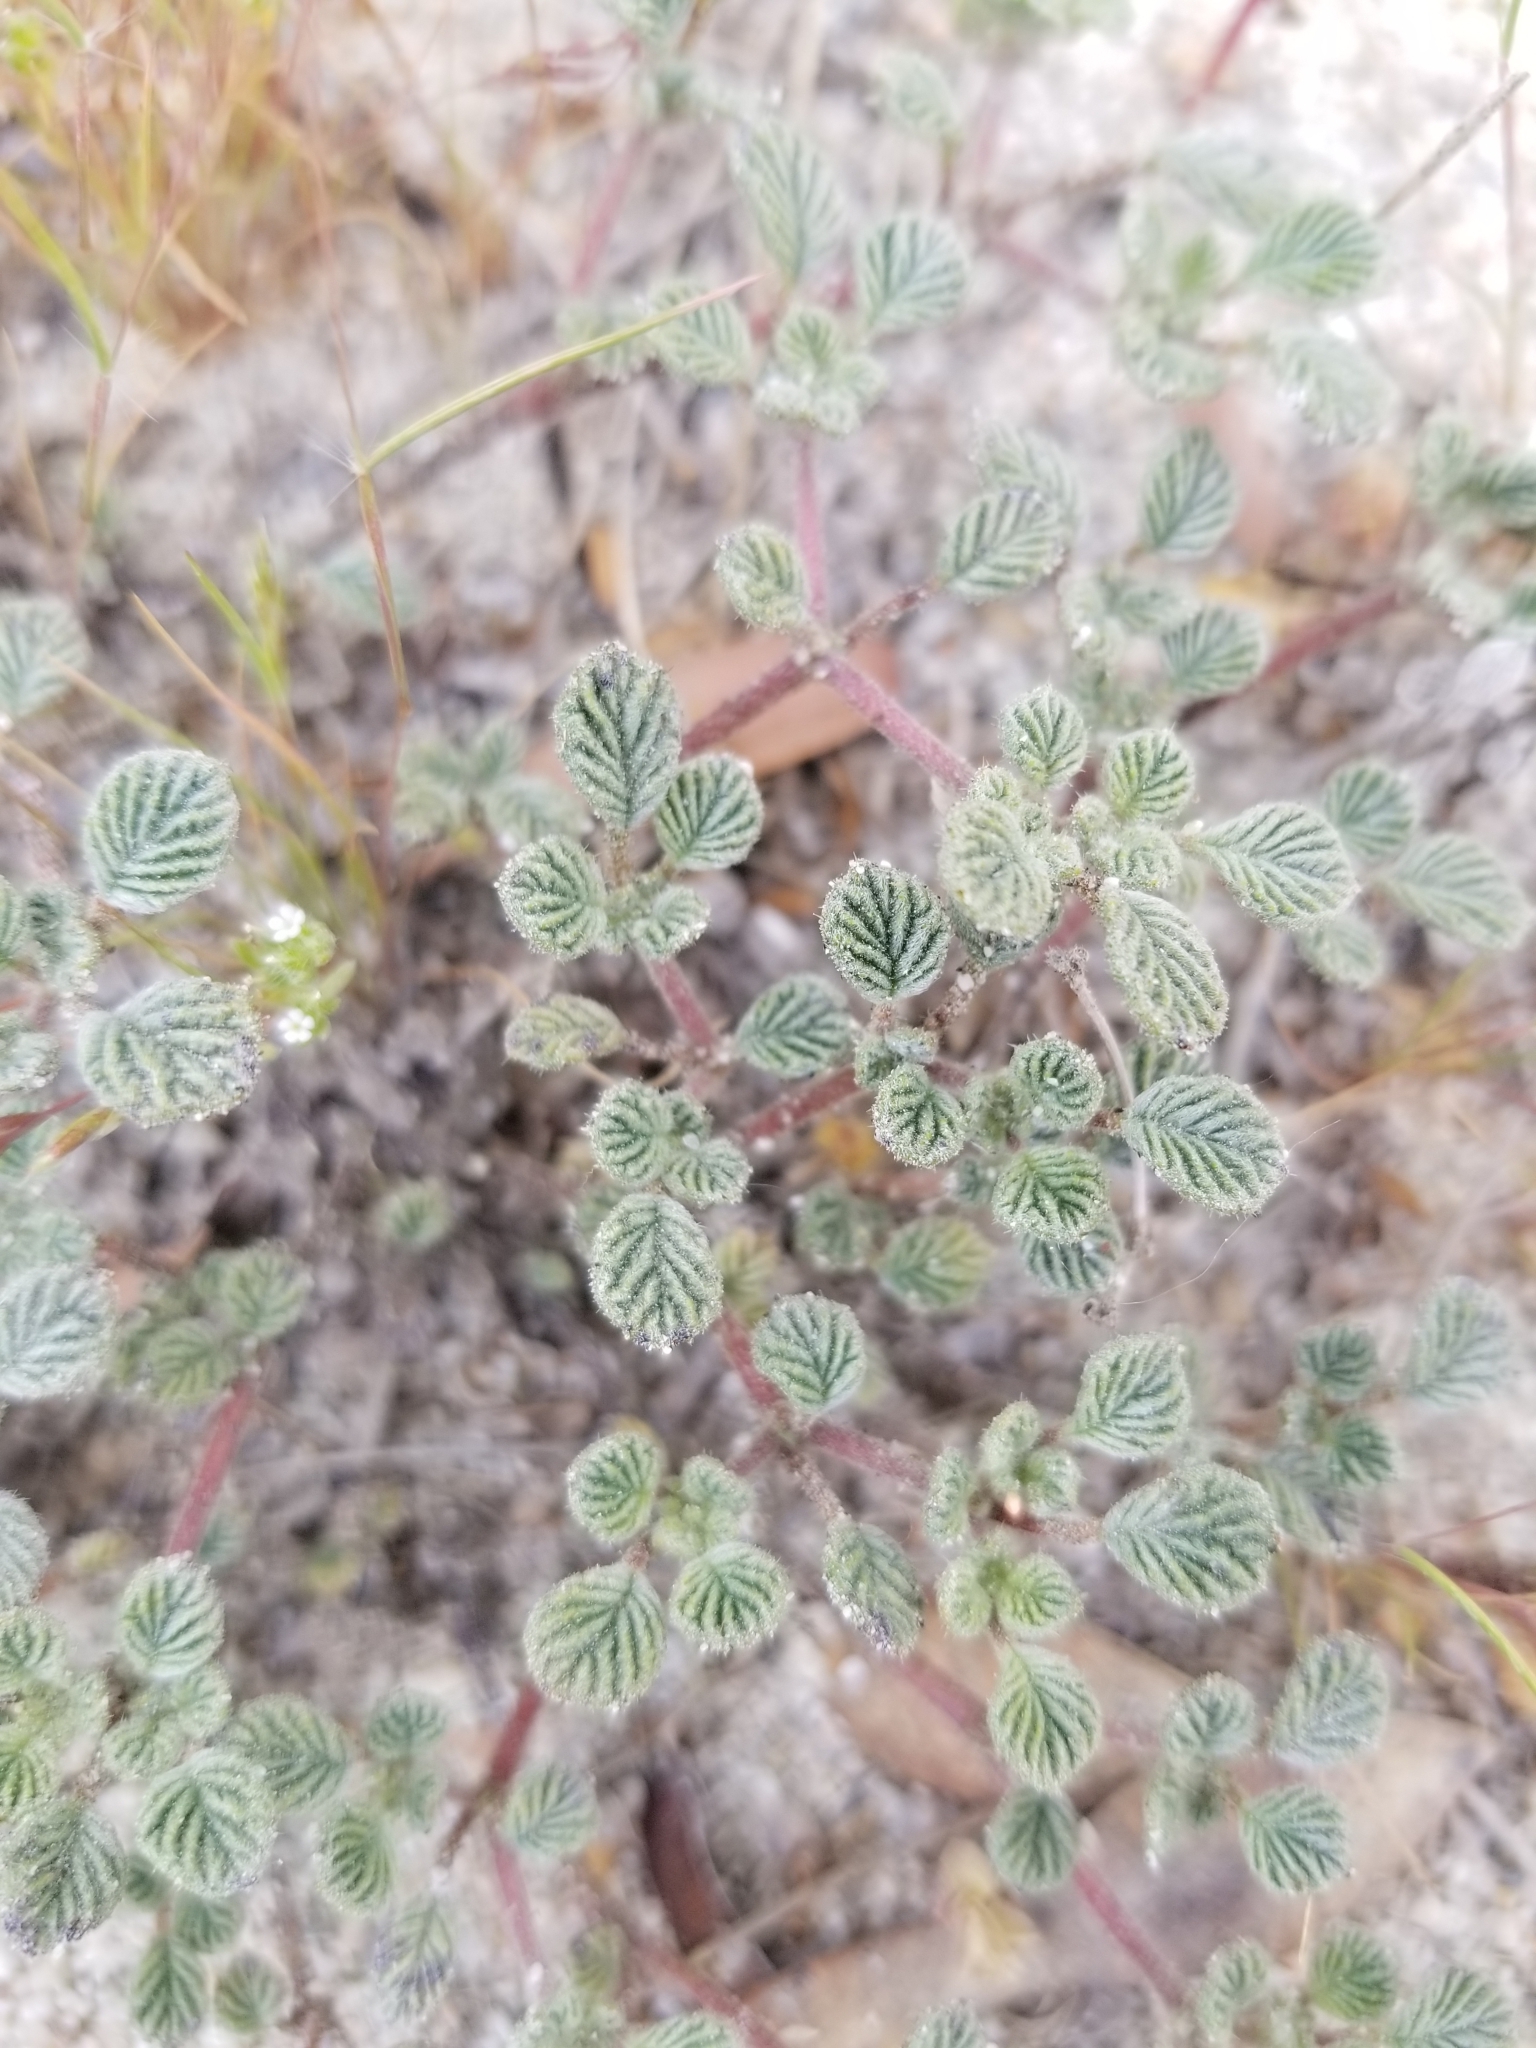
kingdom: Plantae
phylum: Tracheophyta
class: Magnoliopsida
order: Boraginales
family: Ehretiaceae
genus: Tiquilia
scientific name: Tiquilia plicata
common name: Fan-leaf tiquilia
